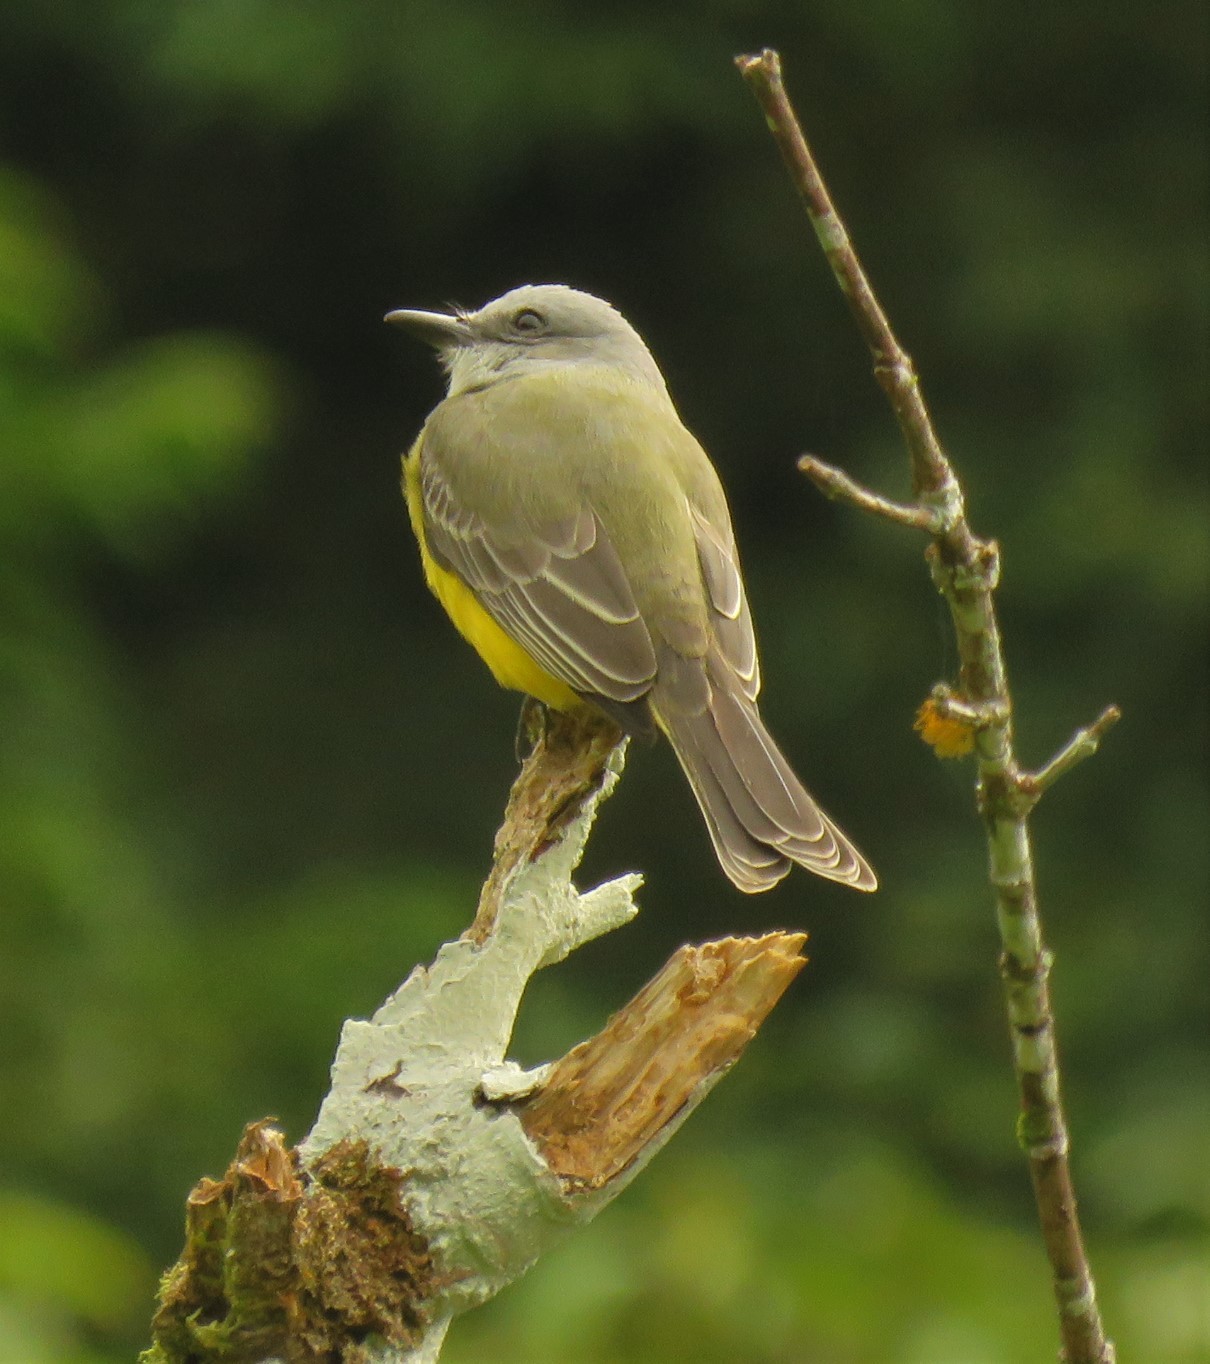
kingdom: Animalia
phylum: Chordata
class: Aves
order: Passeriformes
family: Tyrannidae
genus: Tyrannus
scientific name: Tyrannus melancholicus
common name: Tropical kingbird
